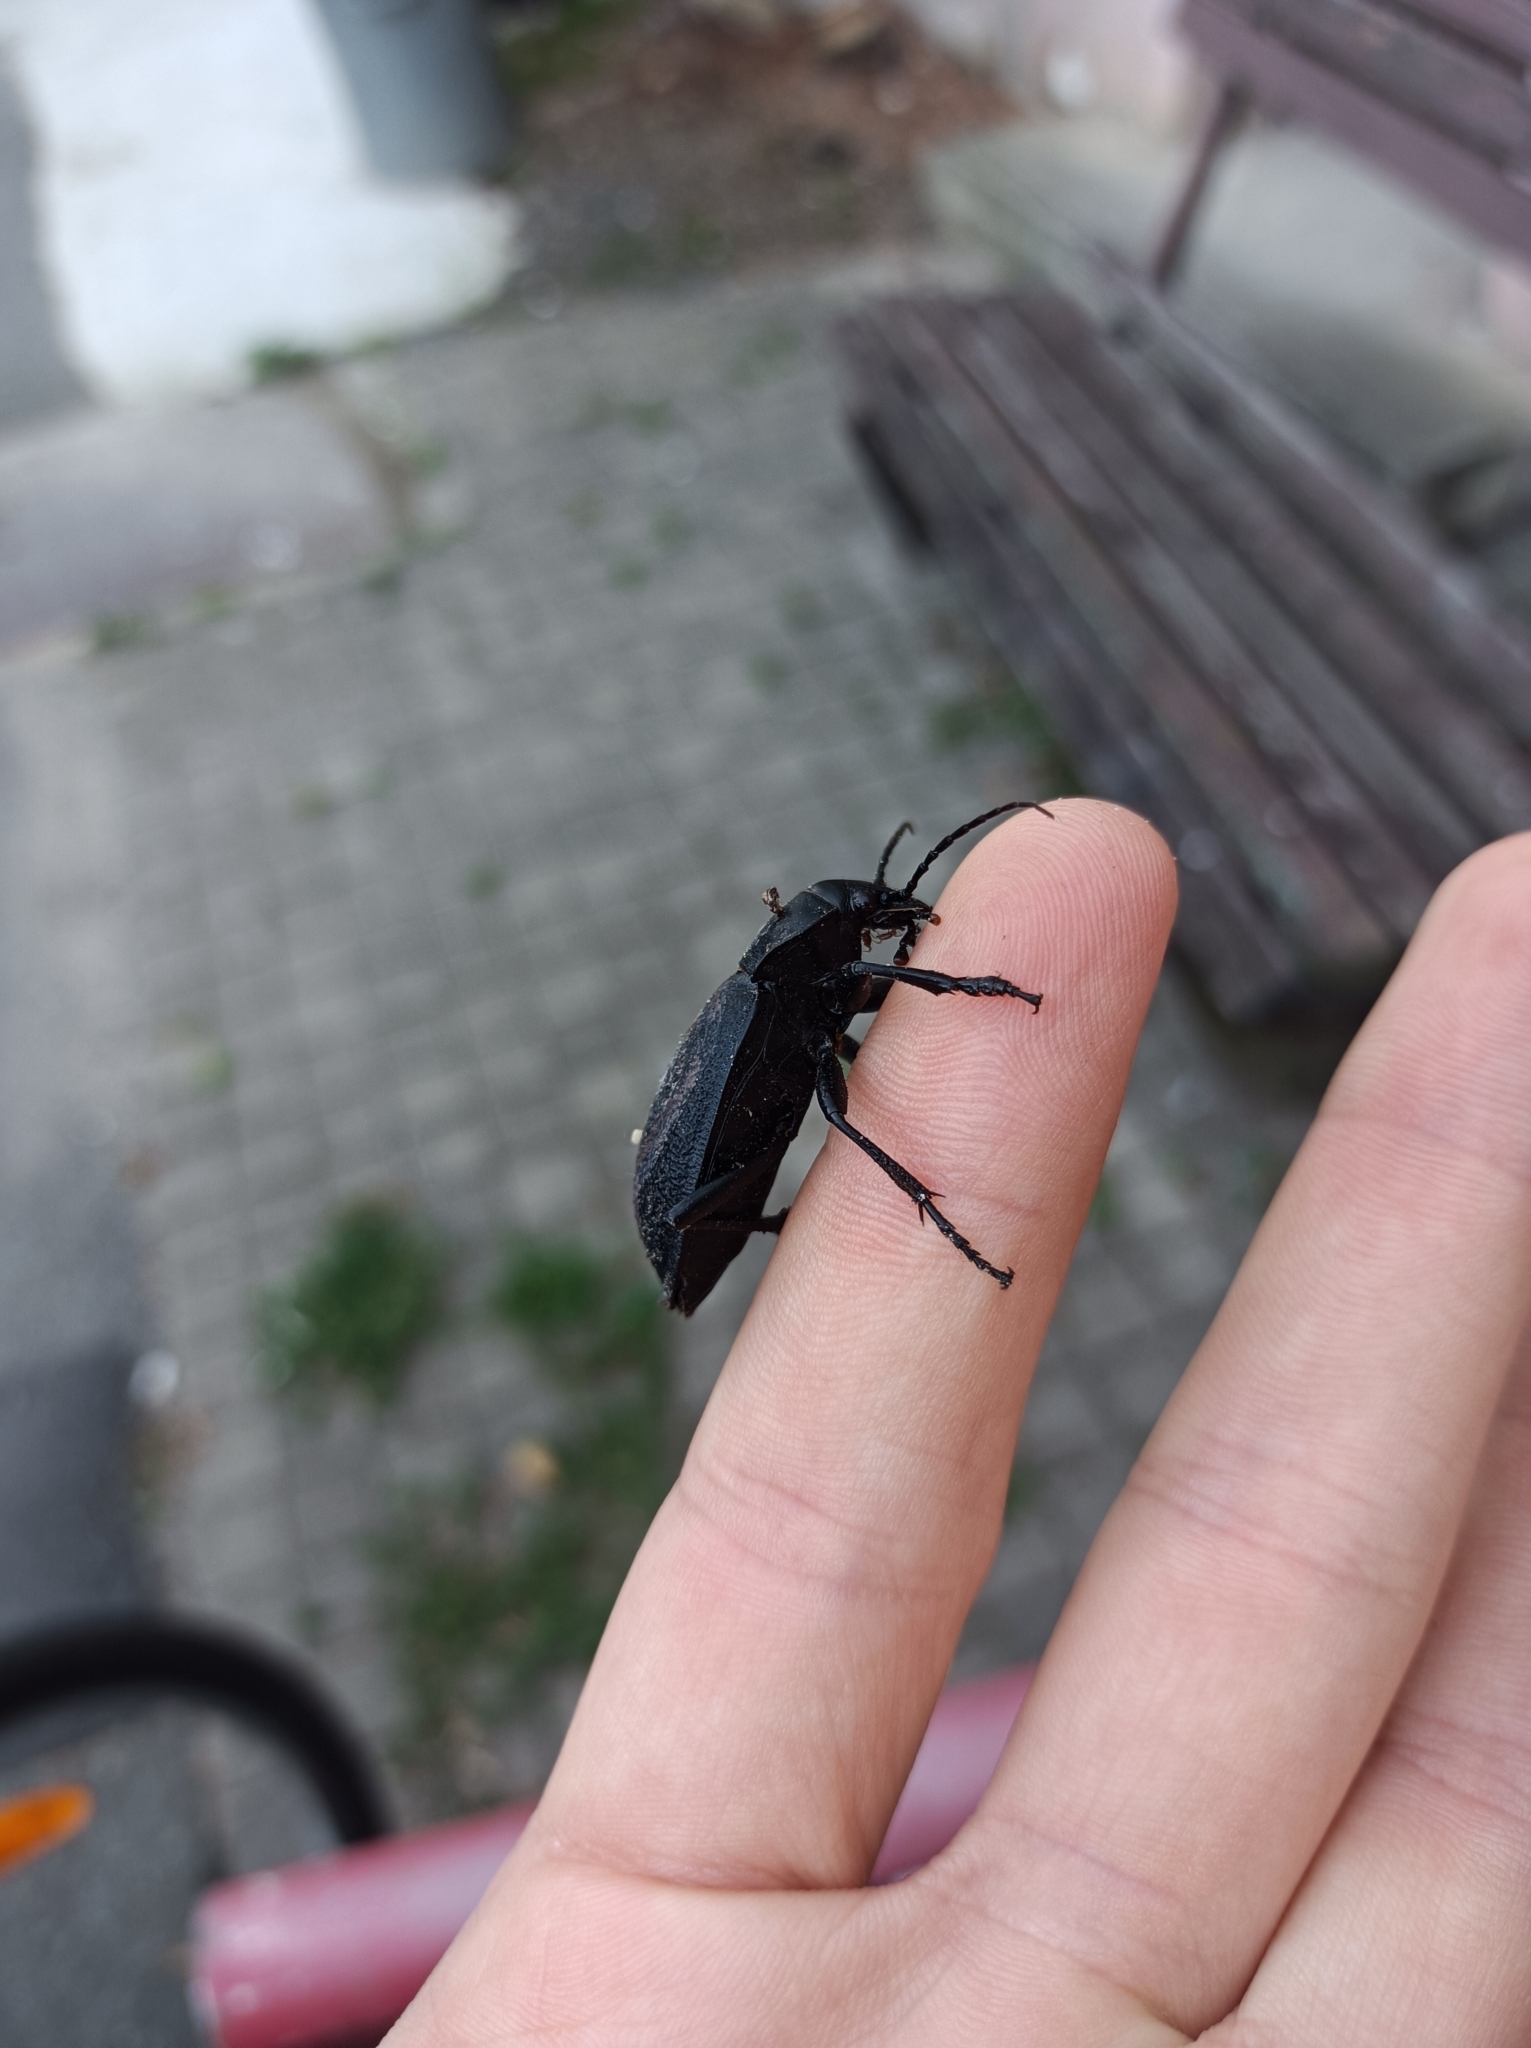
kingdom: Animalia
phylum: Arthropoda
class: Insecta
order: Coleoptera
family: Carabidae
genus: Carabus
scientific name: Carabus coriaceus
